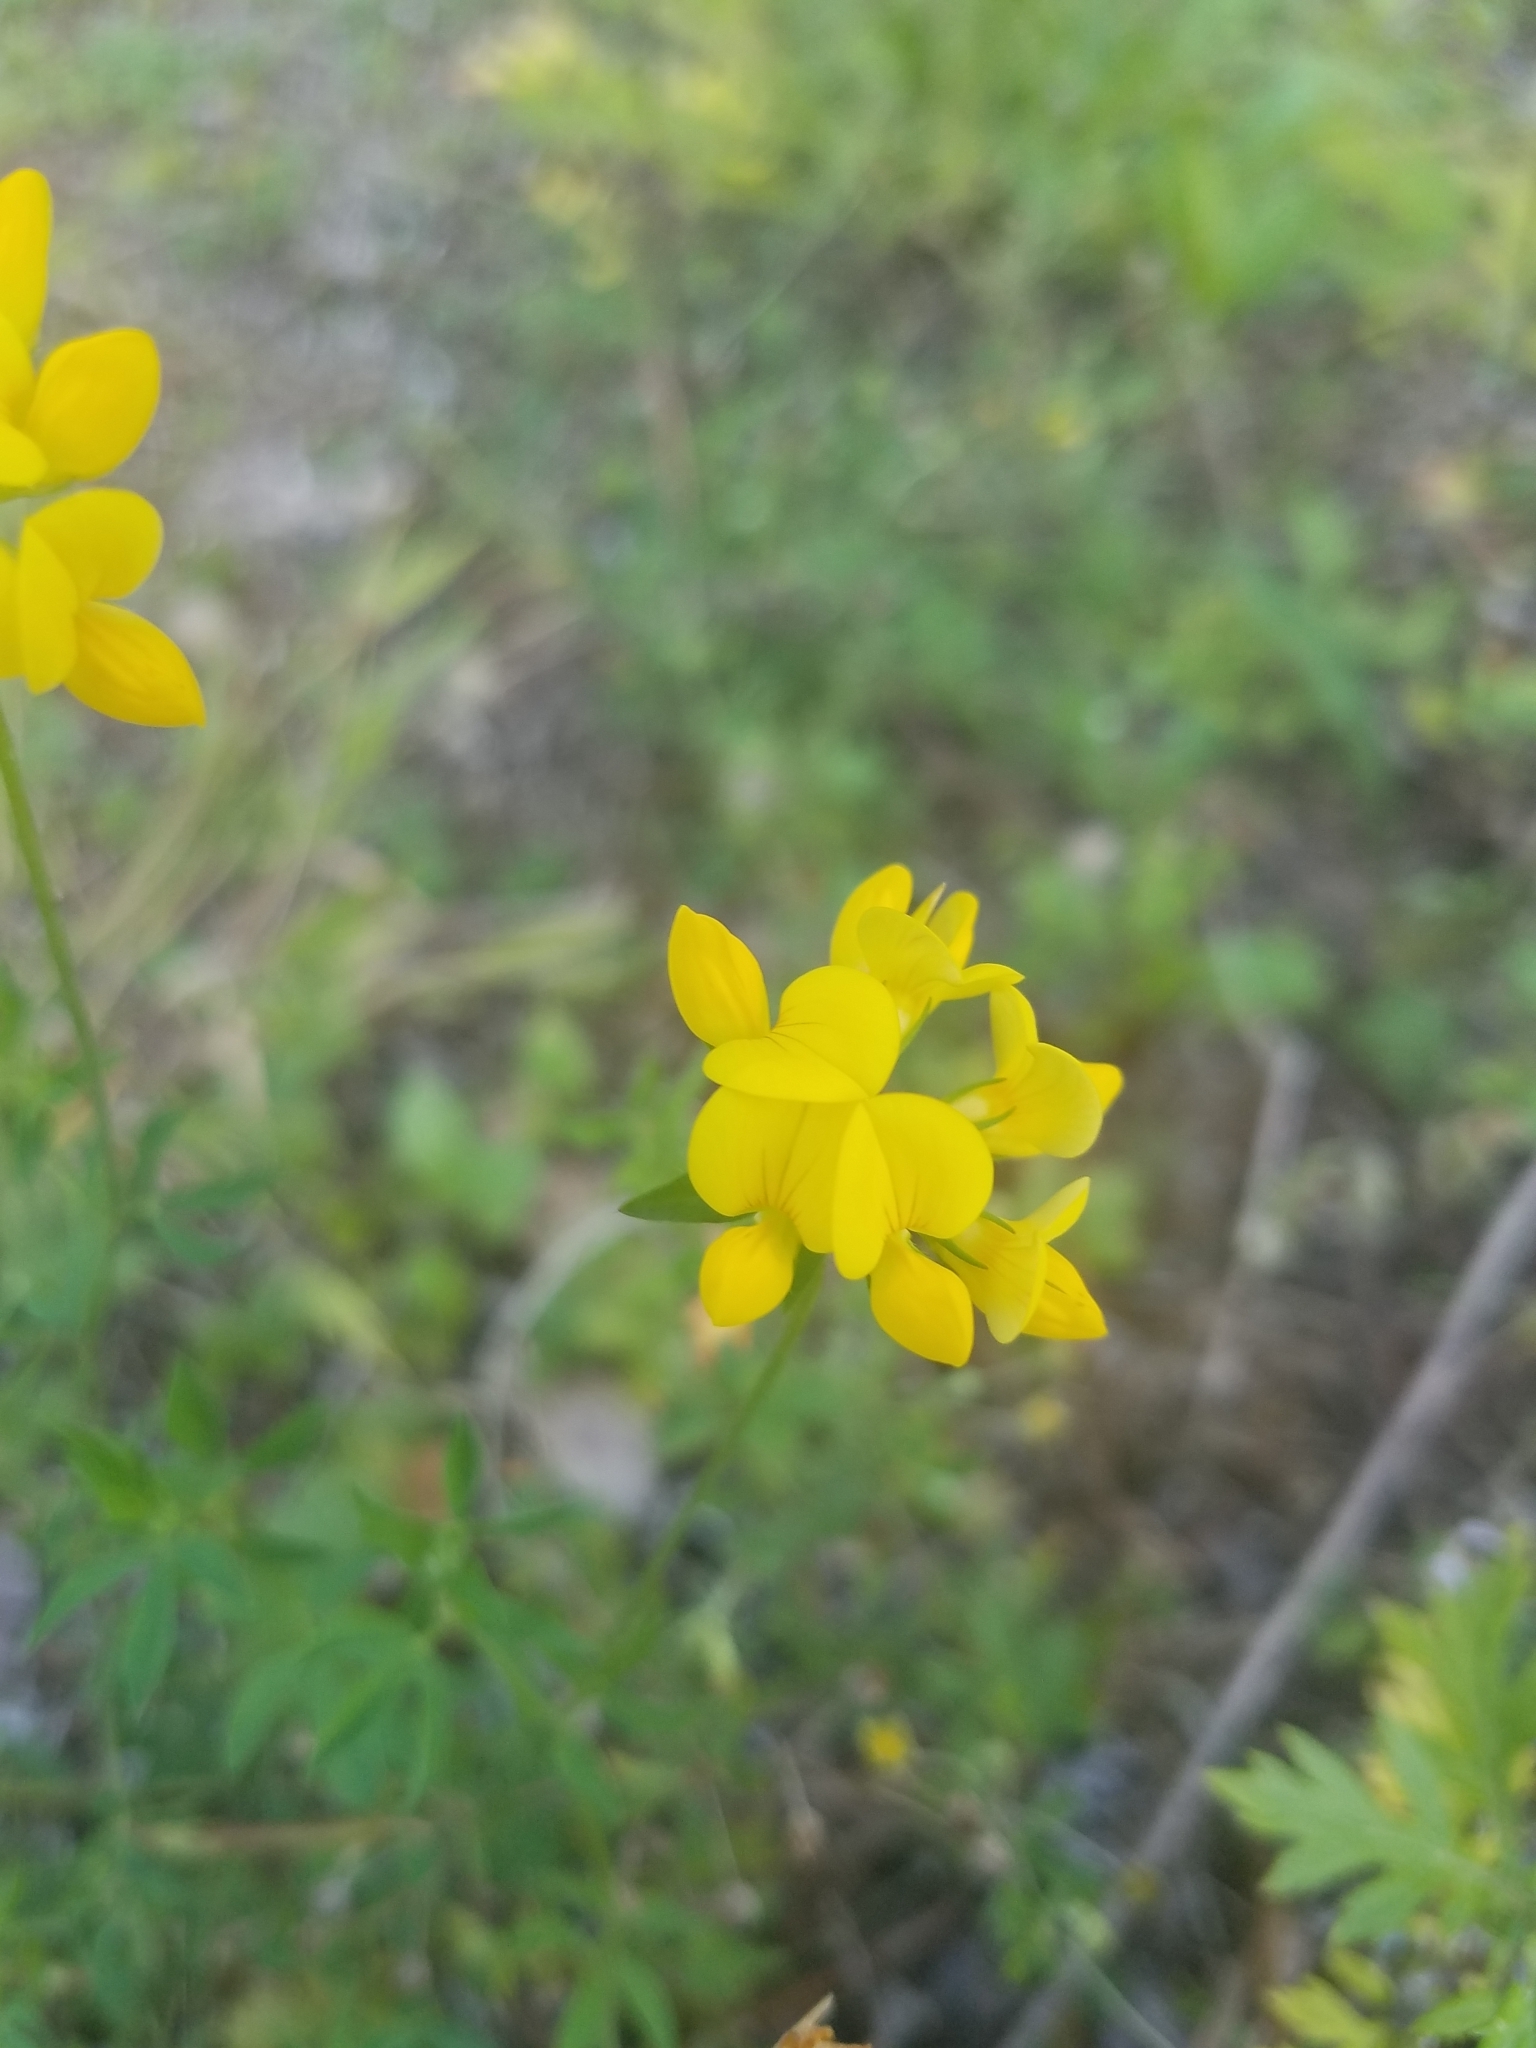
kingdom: Plantae
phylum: Tracheophyta
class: Magnoliopsida
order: Fabales
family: Fabaceae
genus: Lotus
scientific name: Lotus corniculatus
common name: Common bird's-foot-trefoil
